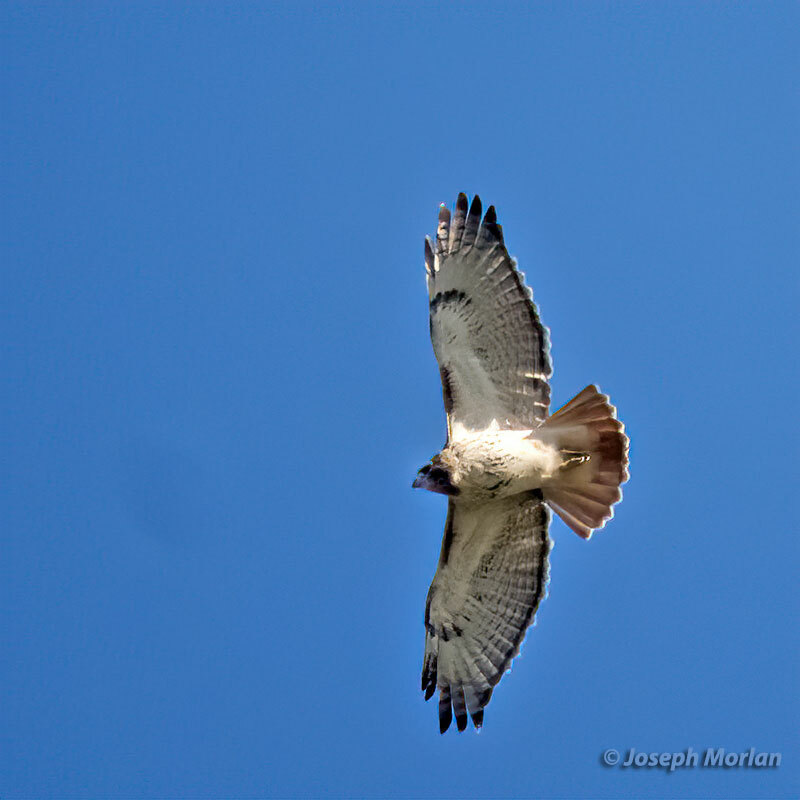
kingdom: Animalia
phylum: Chordata
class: Aves
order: Accipitriformes
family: Accipitridae
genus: Buteo
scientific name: Buteo jamaicensis
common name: Red-tailed hawk
